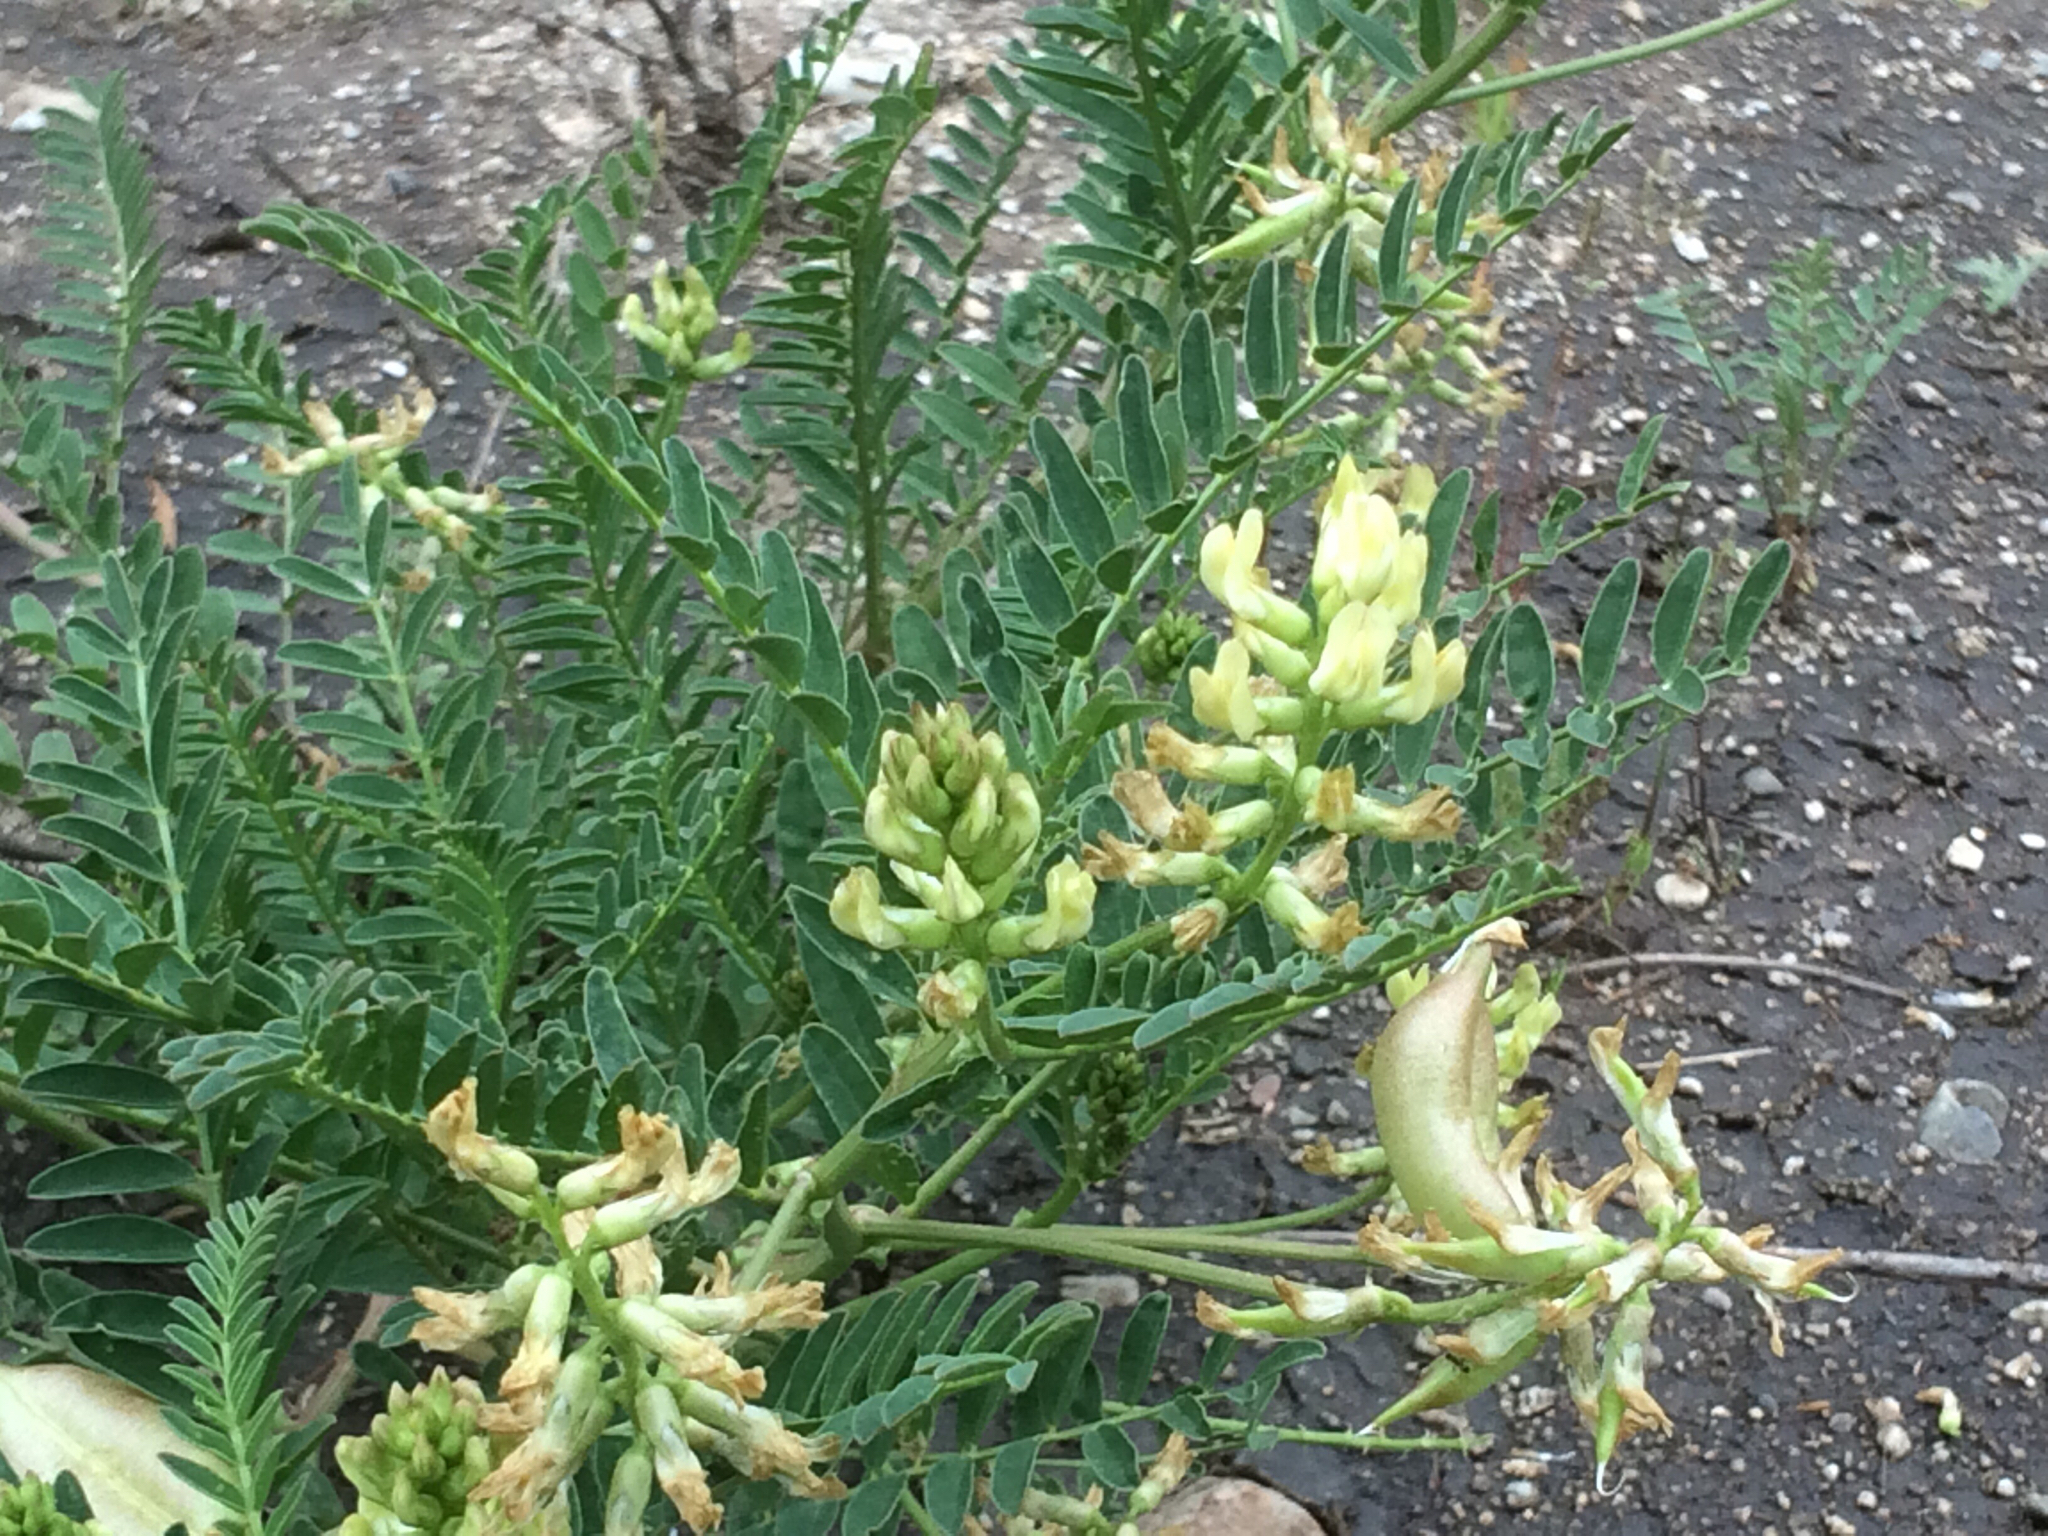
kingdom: Plantae
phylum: Tracheophyta
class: Magnoliopsida
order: Fabales
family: Fabaceae
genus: Astragalus
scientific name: Astragalus pomonensis
